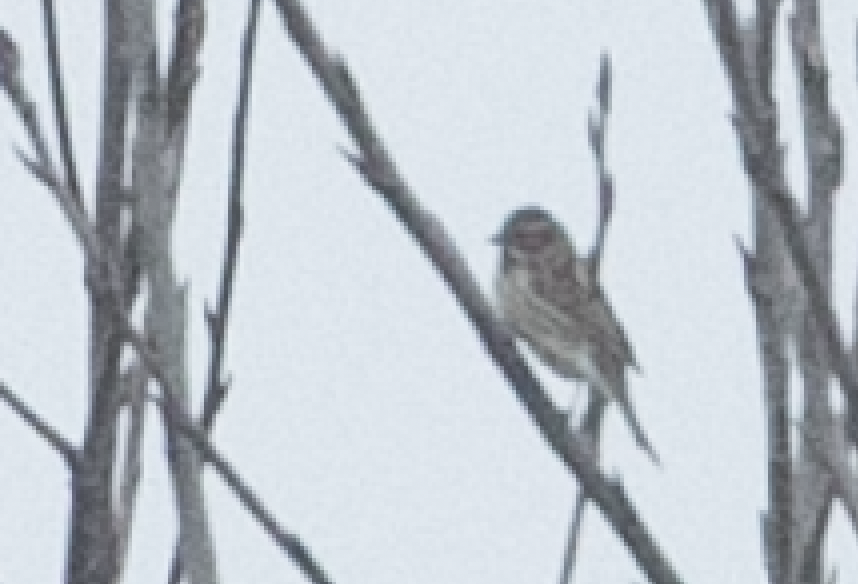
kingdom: Animalia
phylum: Chordata
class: Aves
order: Passeriformes
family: Emberizidae
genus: Emberiza
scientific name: Emberiza schoeniclus
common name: Reed bunting
